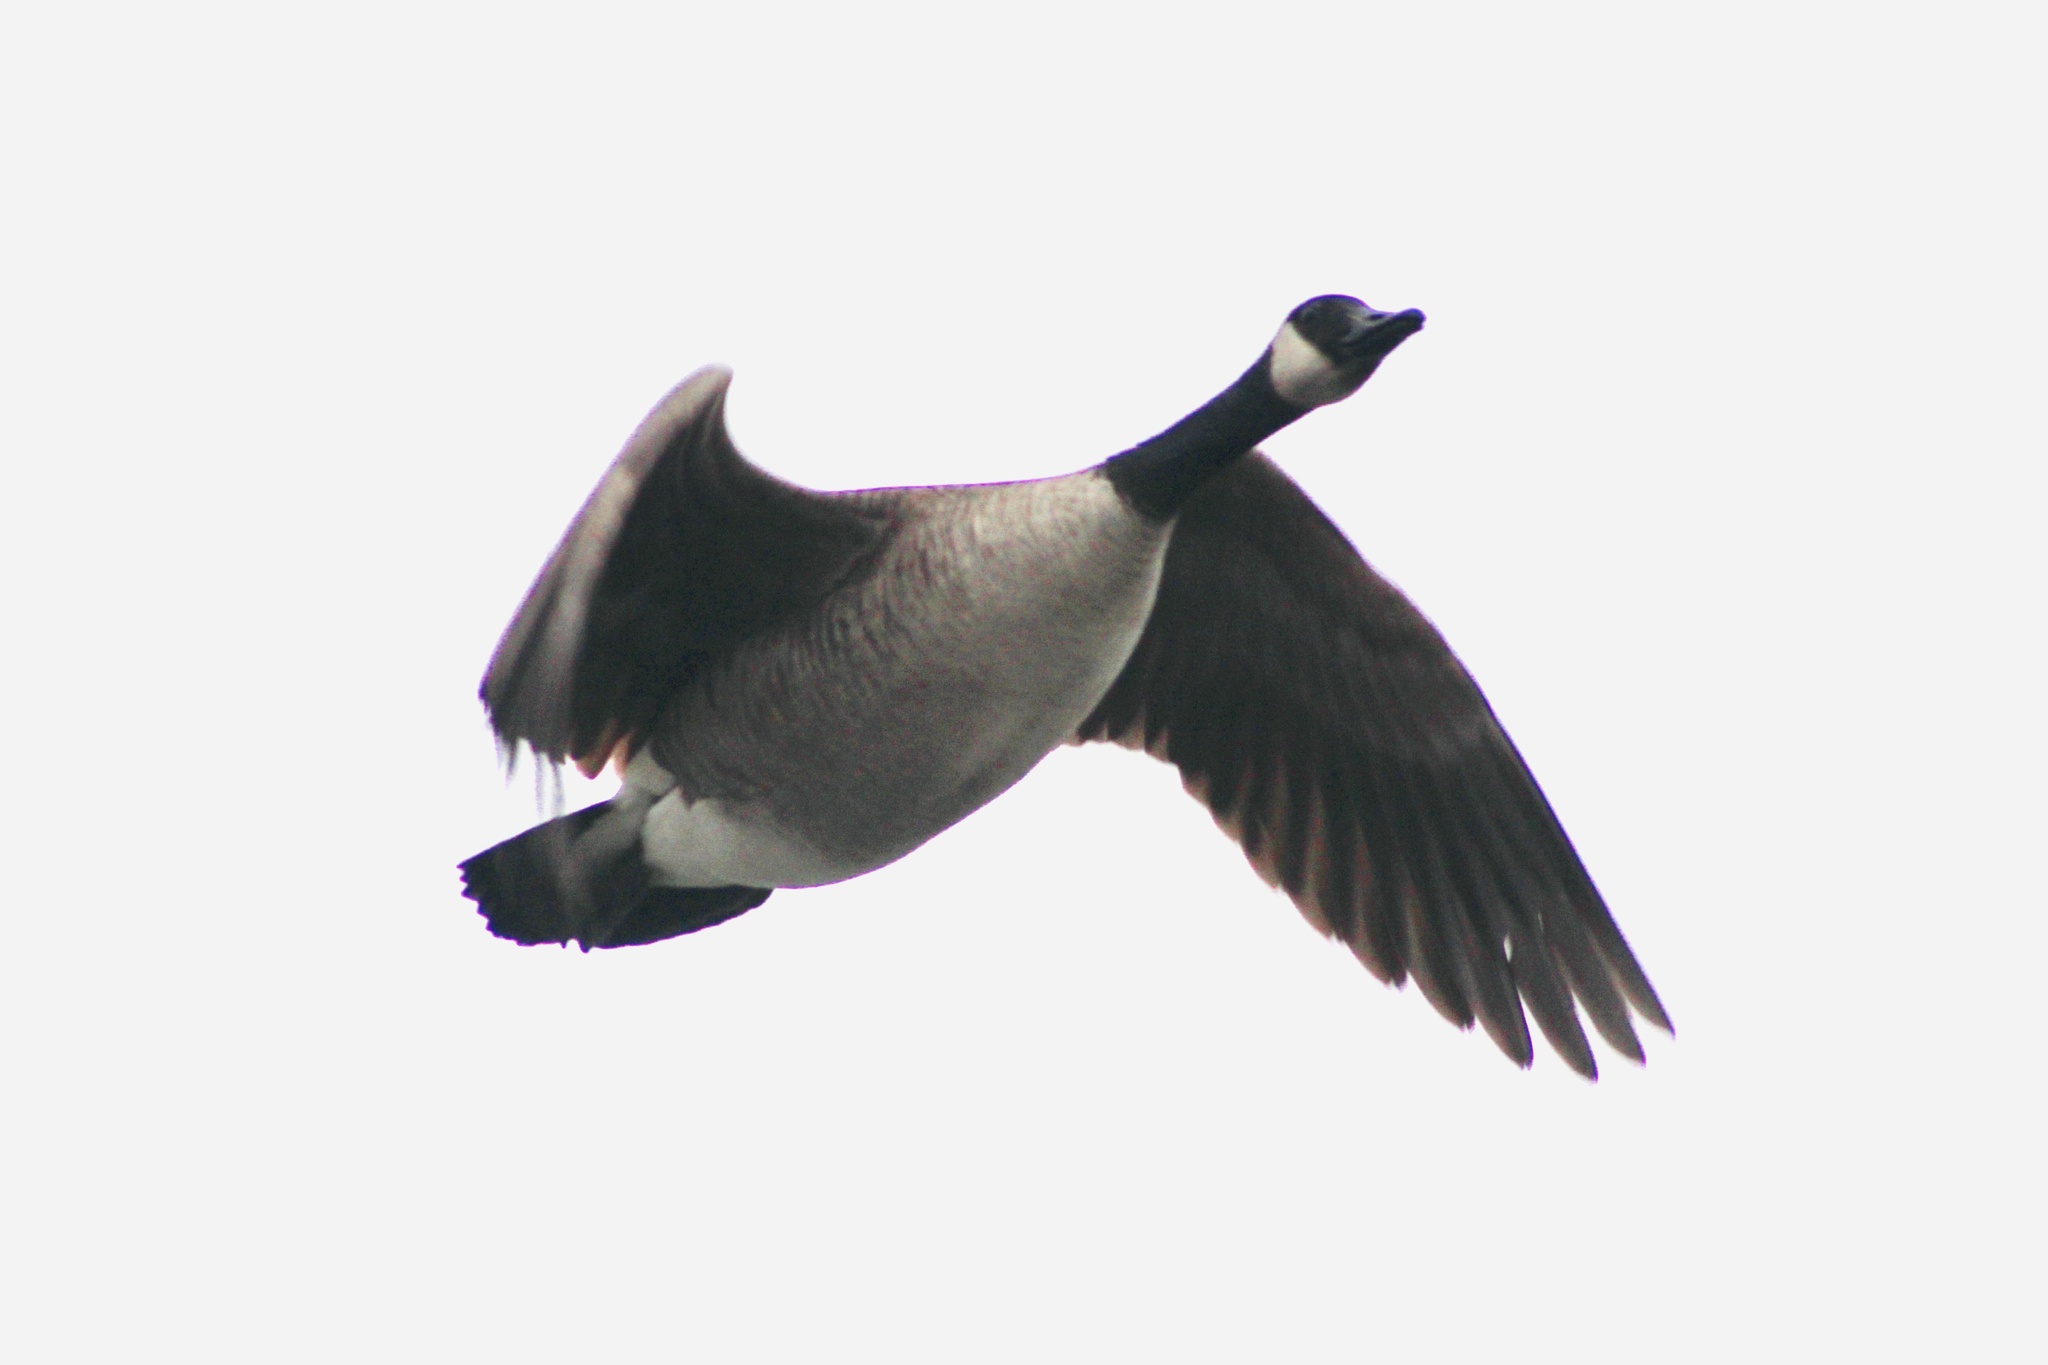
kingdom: Animalia
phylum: Chordata
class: Aves
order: Anseriformes
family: Anatidae
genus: Branta
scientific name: Branta canadensis
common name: Canada goose
